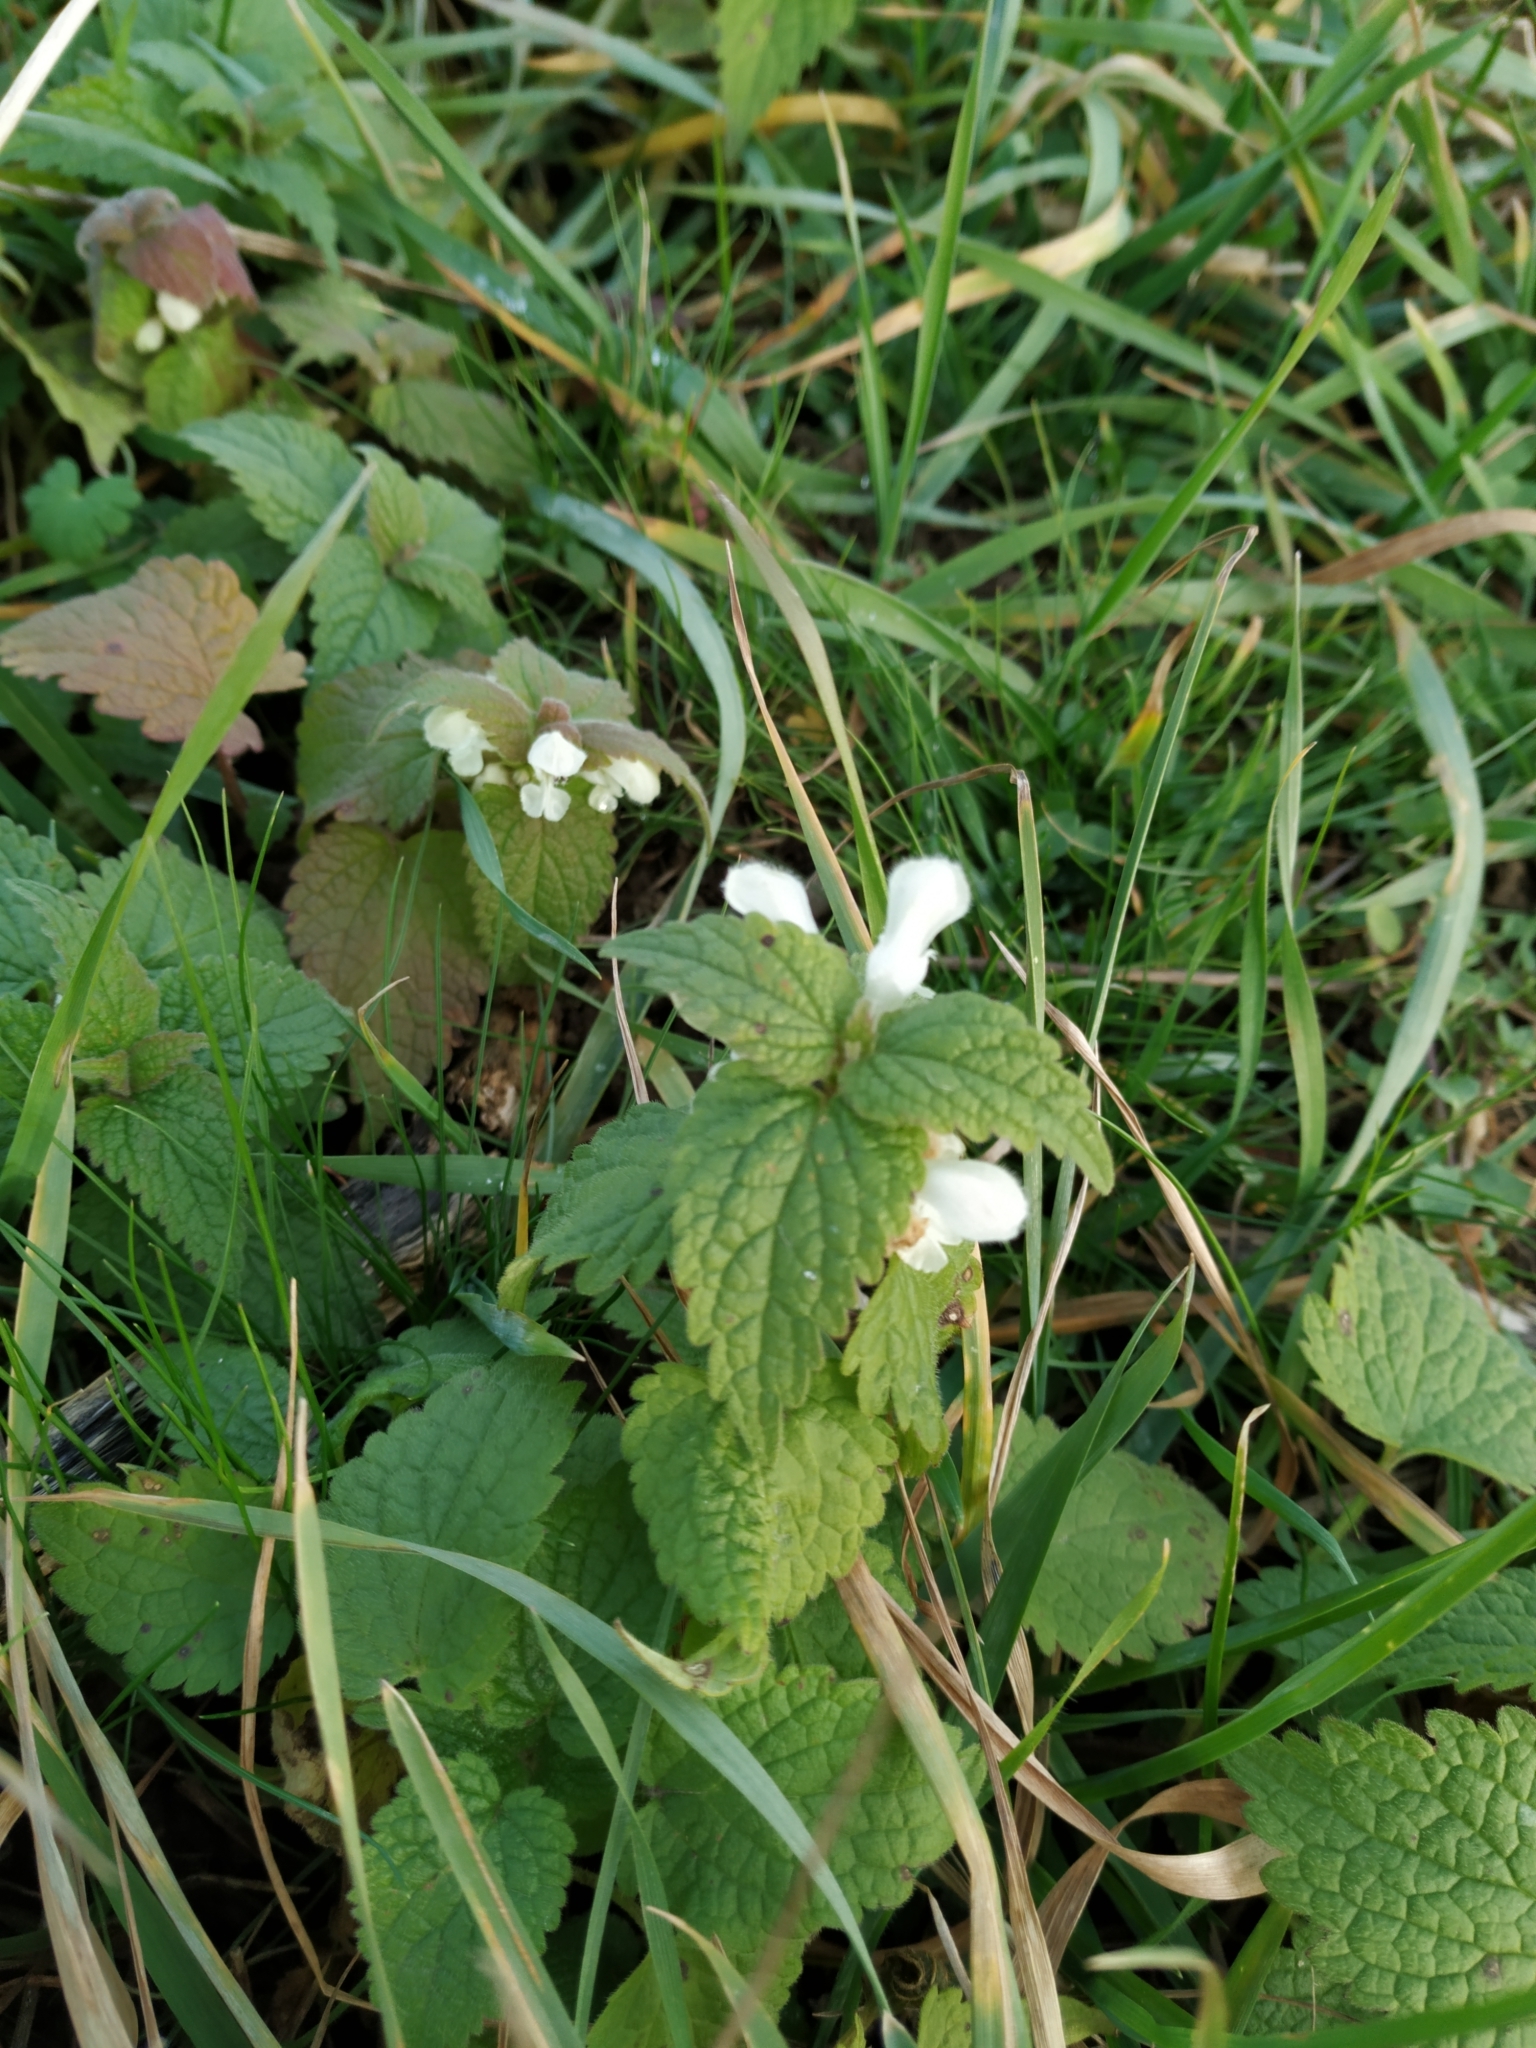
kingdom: Plantae
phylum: Tracheophyta
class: Magnoliopsida
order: Lamiales
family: Lamiaceae
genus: Lamium
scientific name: Lamium album
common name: White dead-nettle
